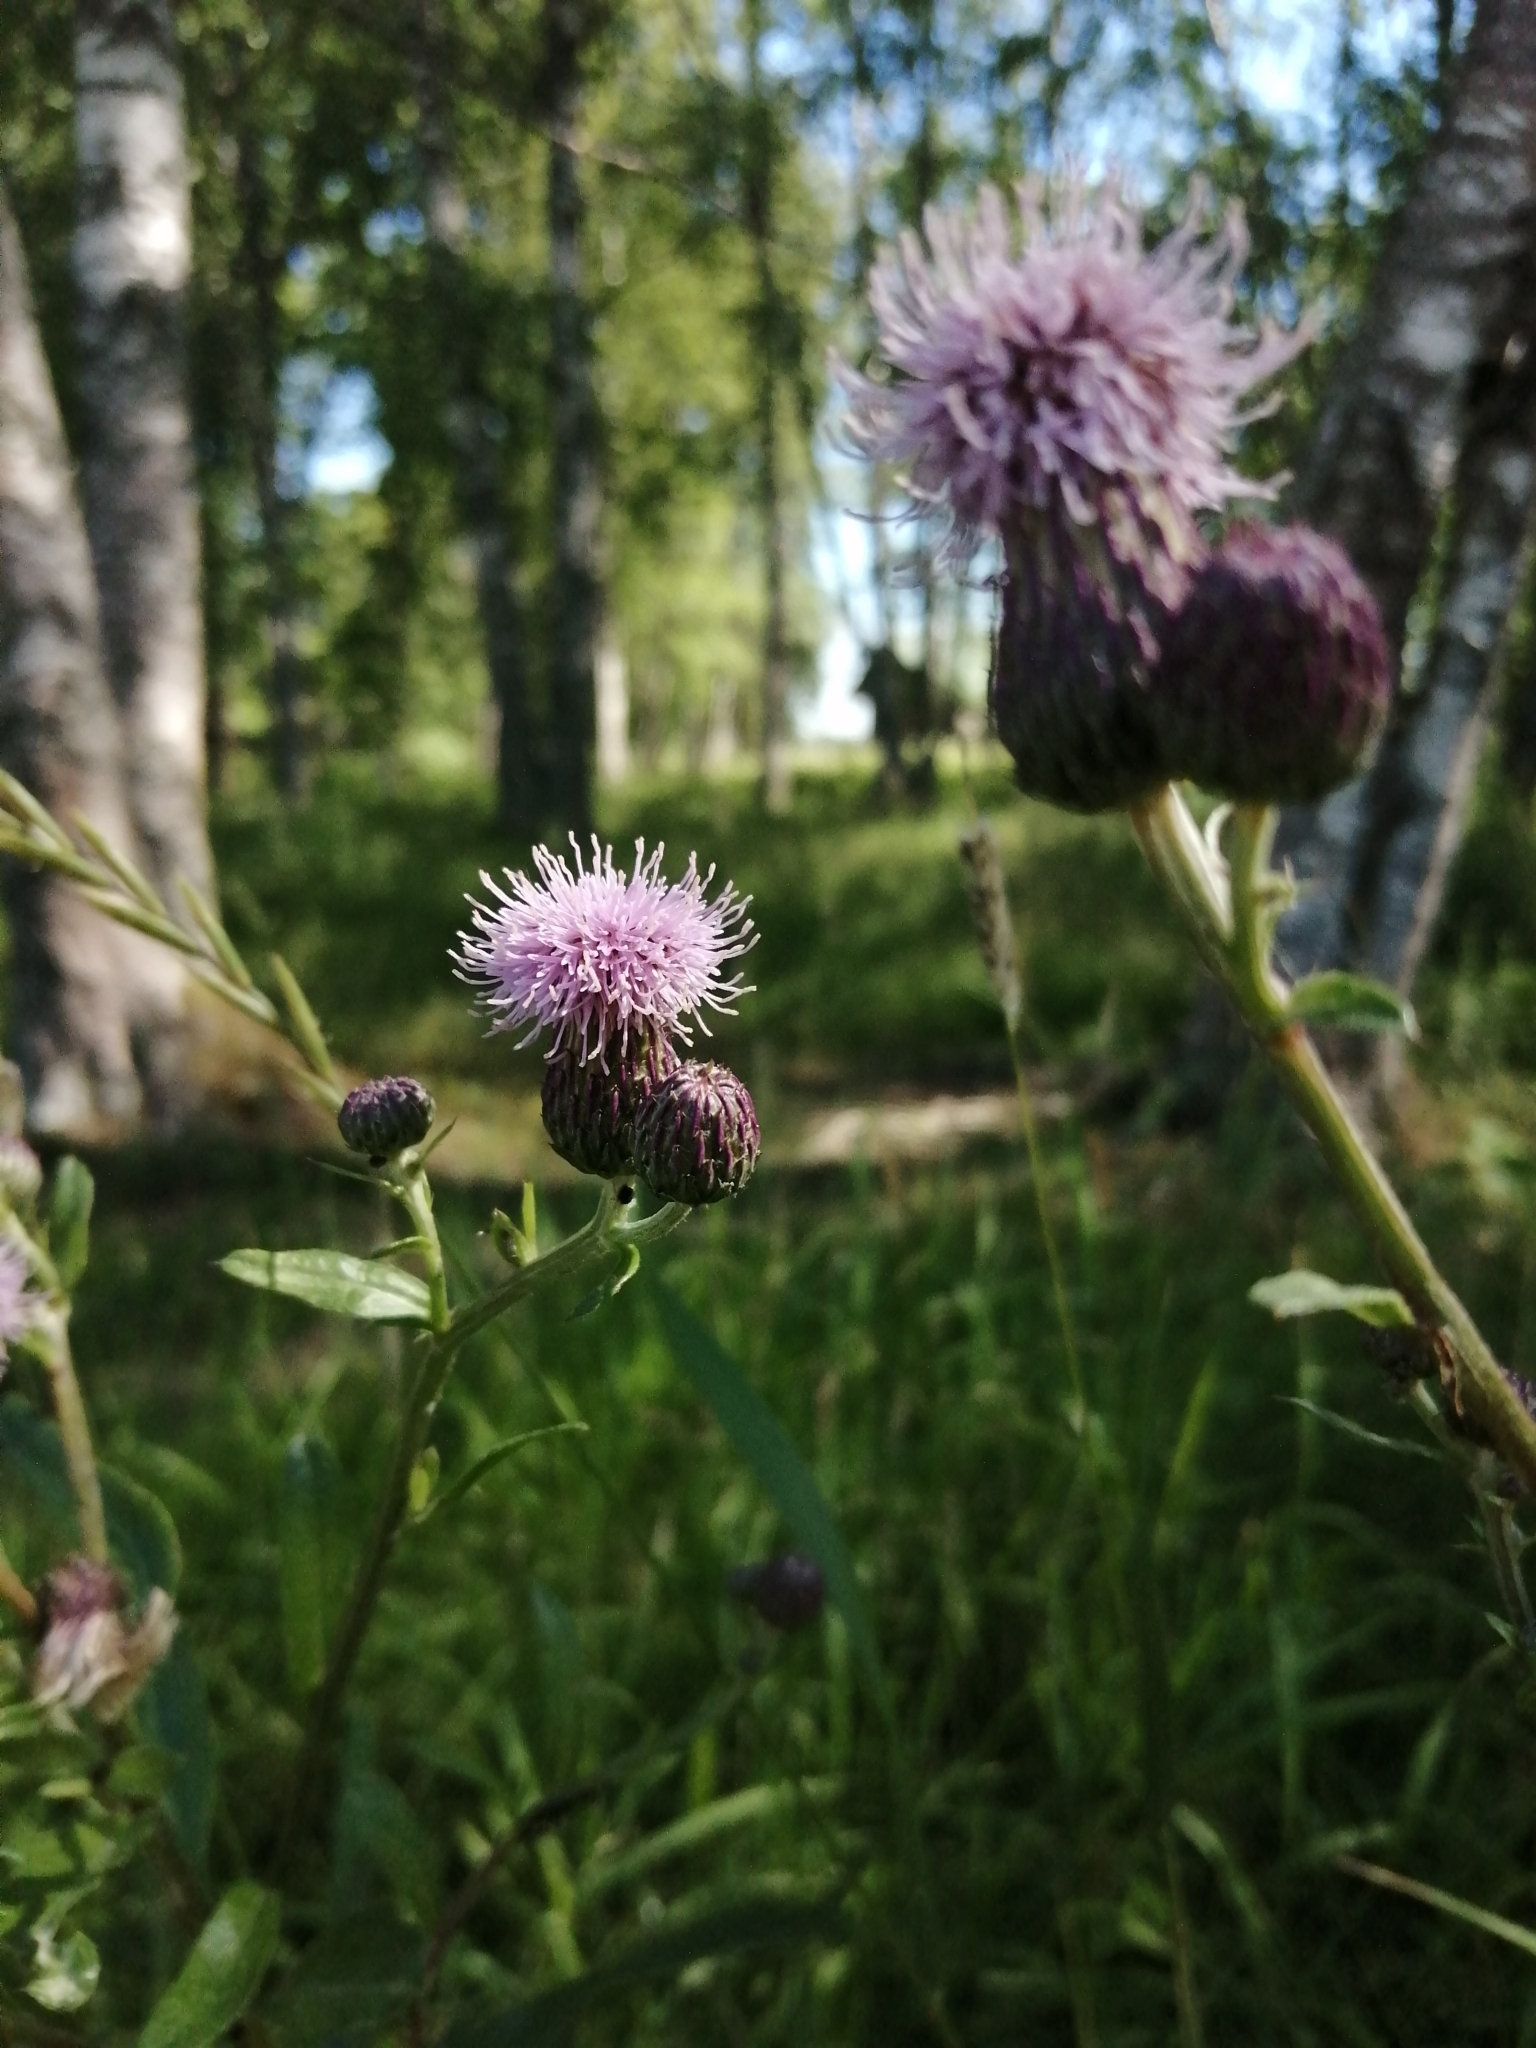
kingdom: Plantae
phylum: Tracheophyta
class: Magnoliopsida
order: Asterales
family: Asteraceae
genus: Cirsium
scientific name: Cirsium arvense
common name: Creeping thistle
